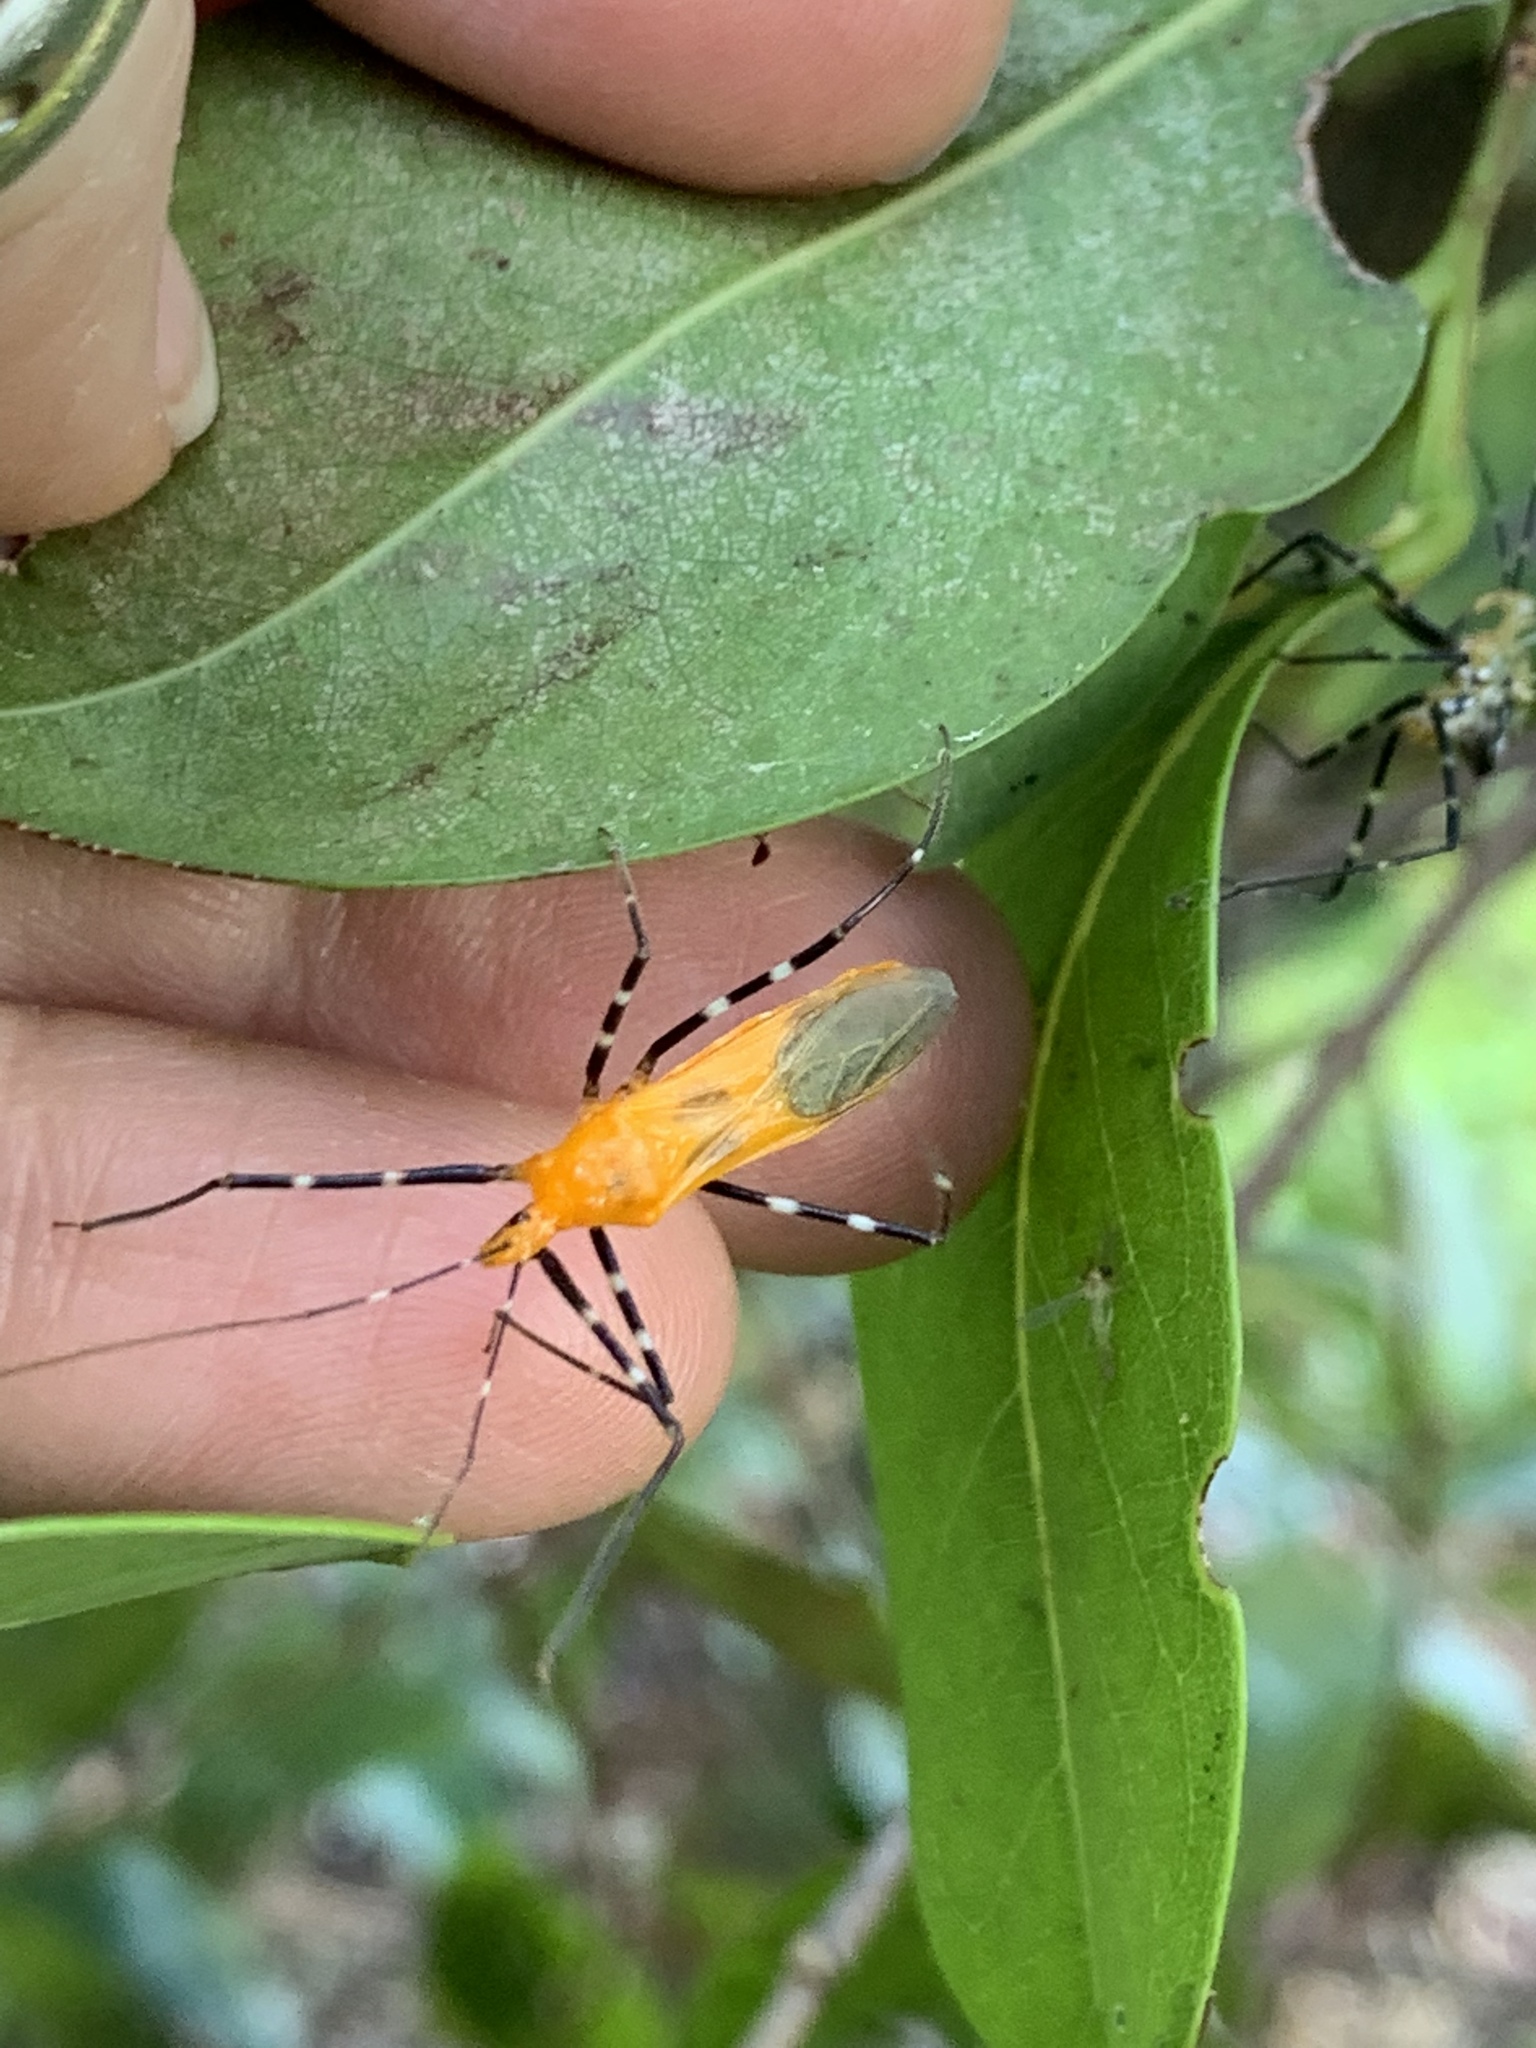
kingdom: Animalia
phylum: Arthropoda
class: Insecta
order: Hemiptera
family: Reduviidae
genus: Zelus
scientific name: Zelus longipes
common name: Milkweed assassin bug
